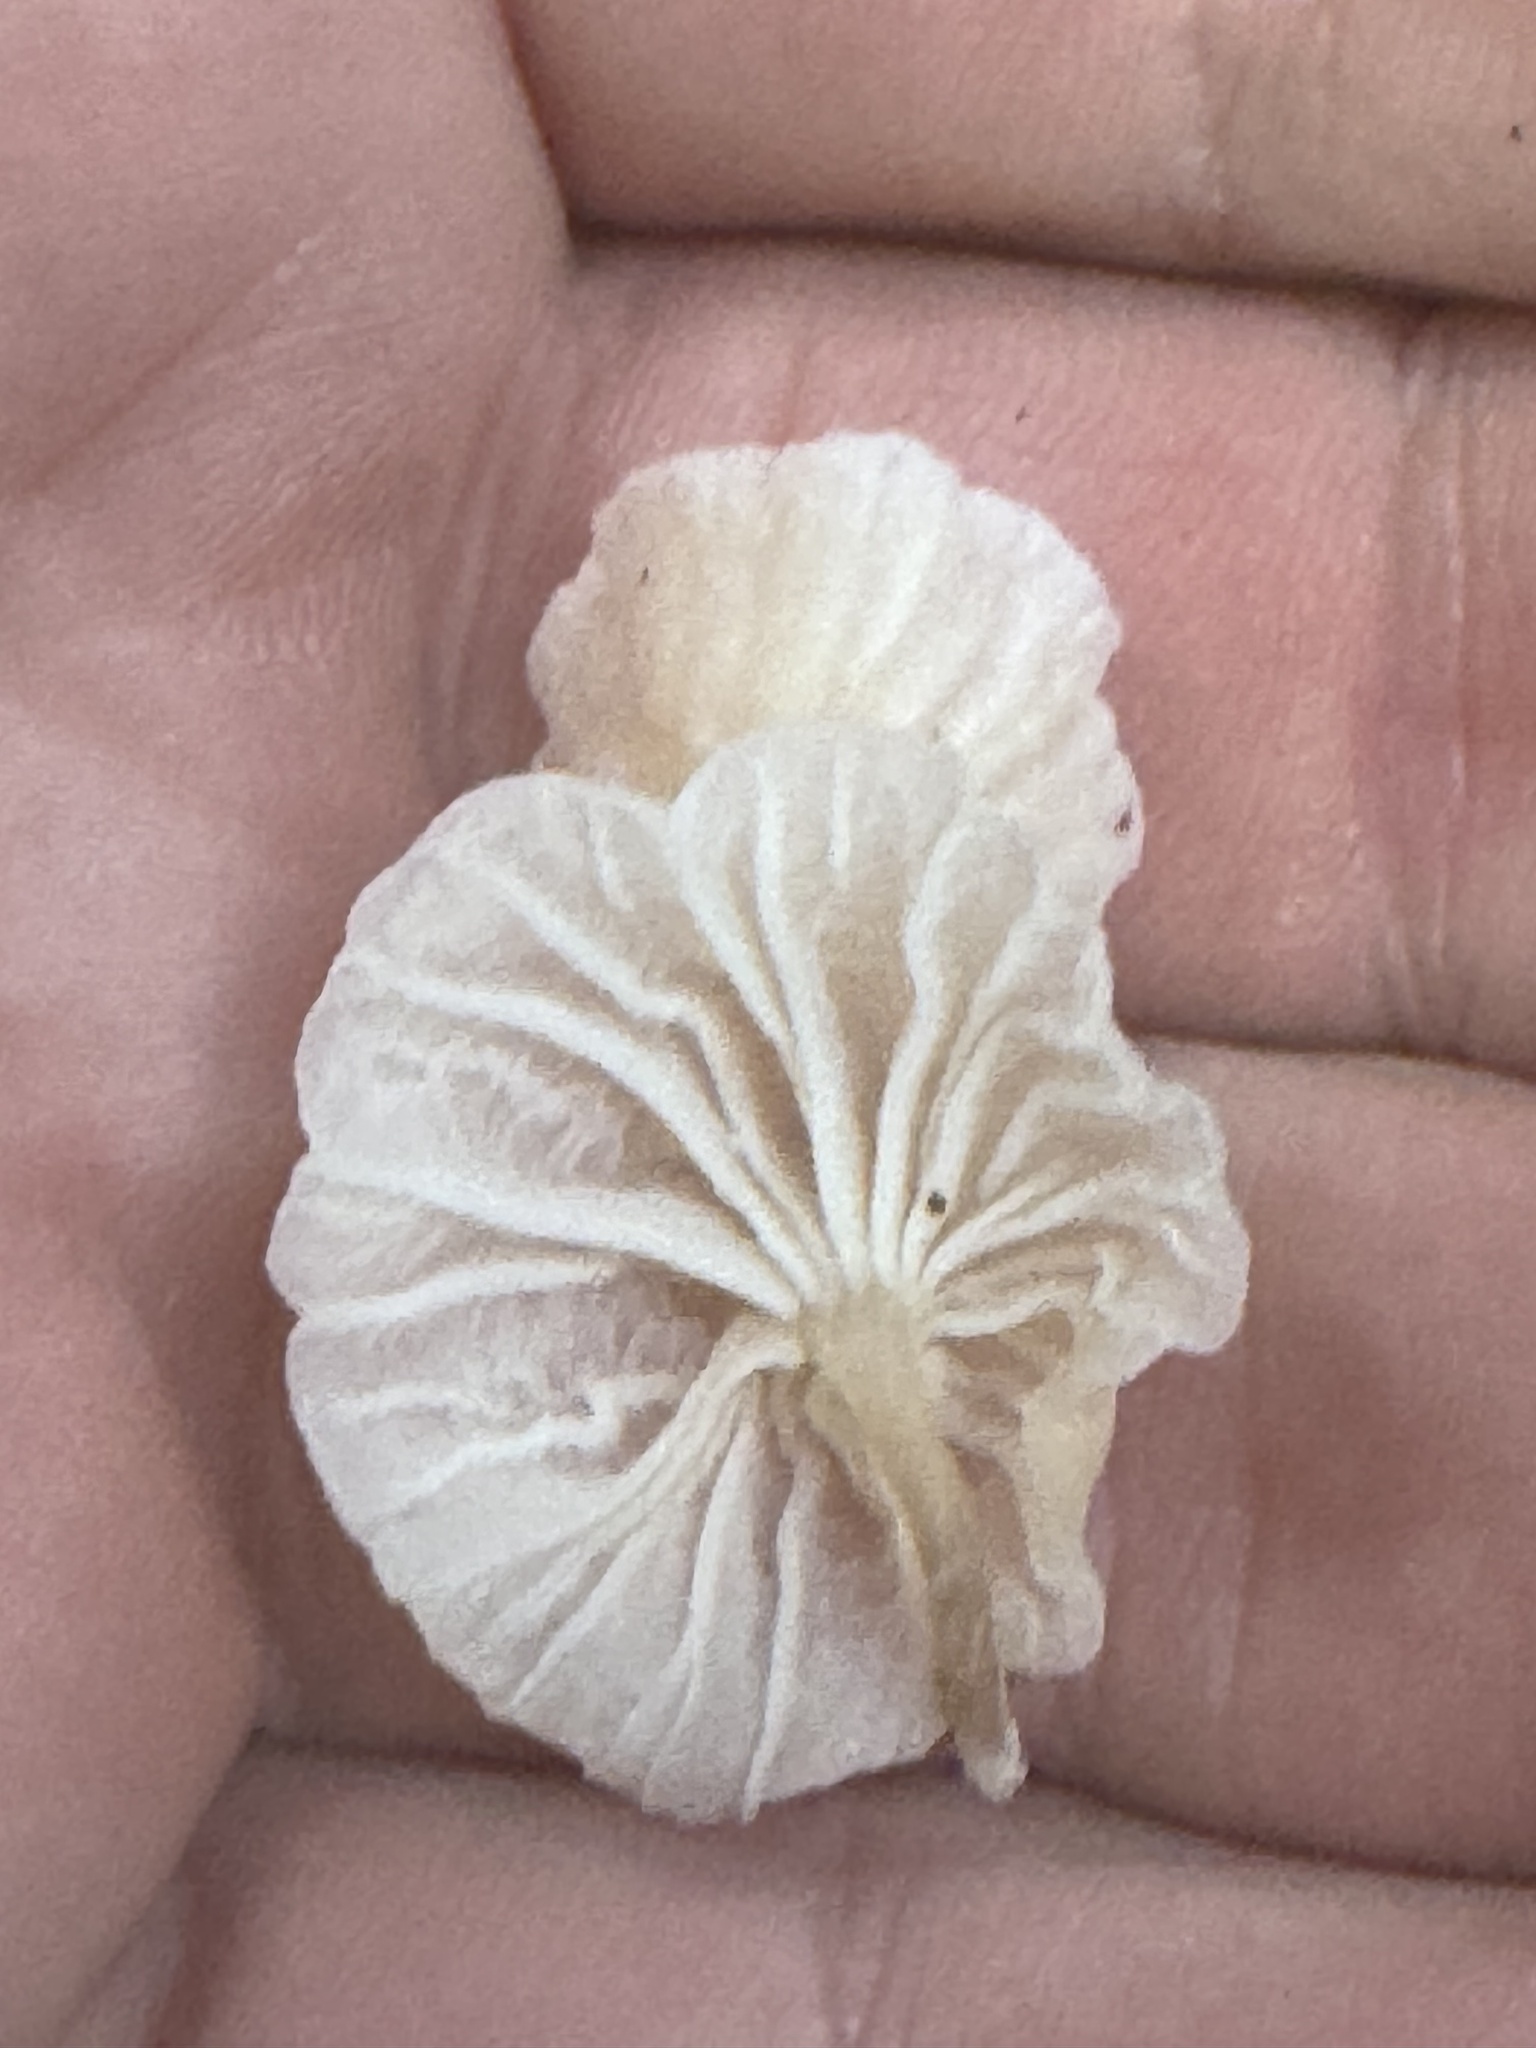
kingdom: Fungi
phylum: Basidiomycota
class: Agaricomycetes
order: Agaricales
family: Omphalotaceae
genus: Marasmiellus
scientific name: Marasmiellus candidus
